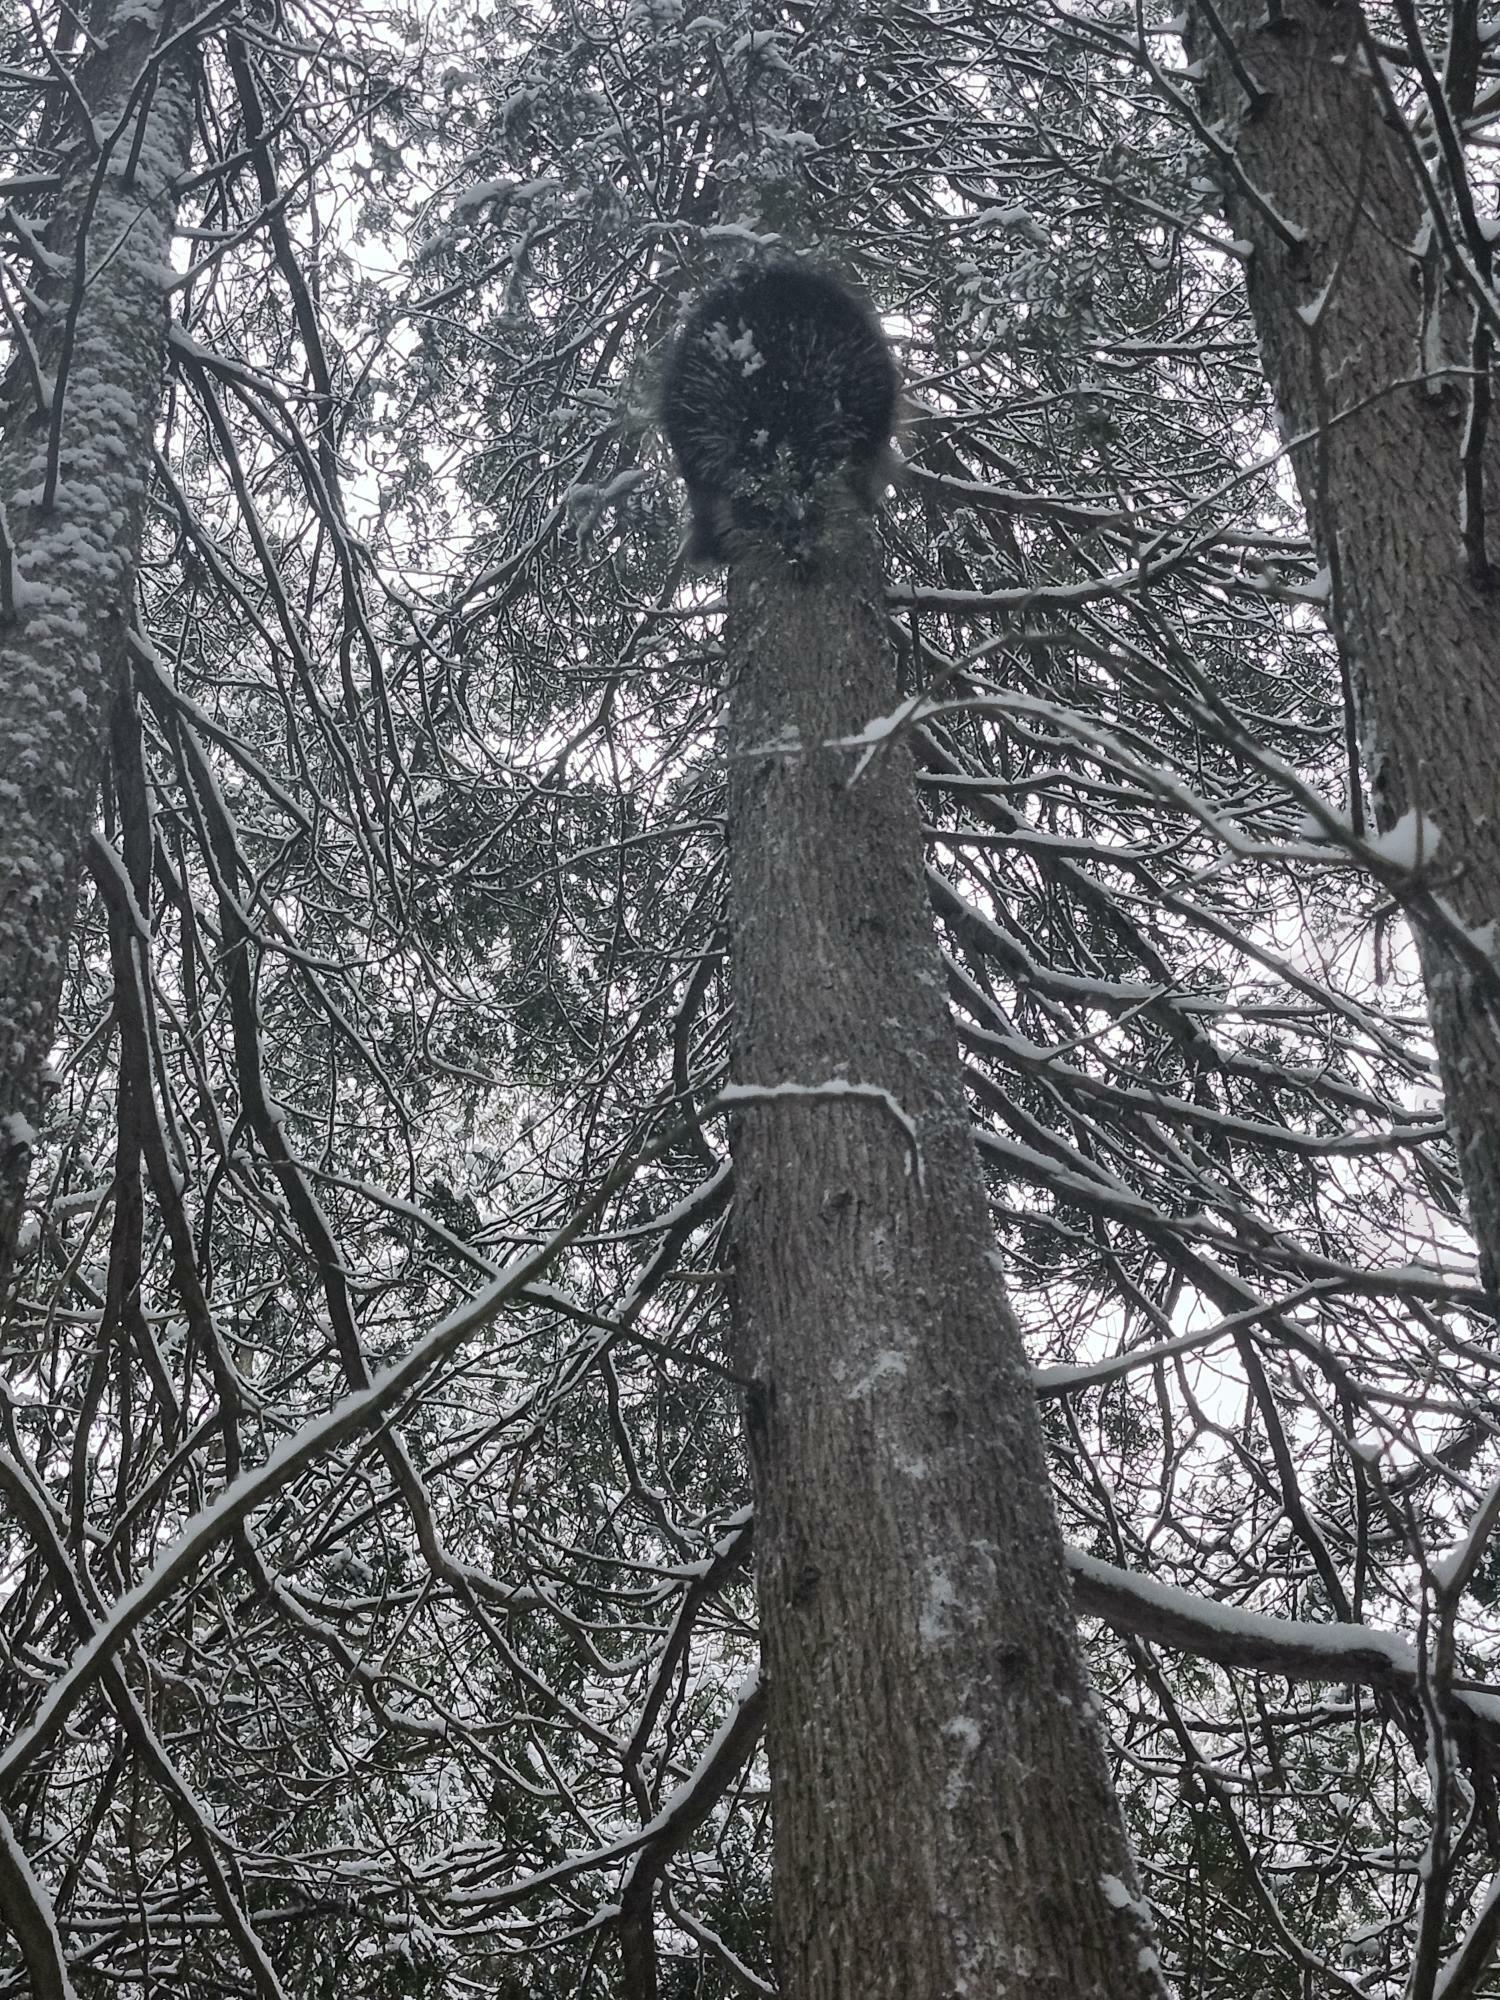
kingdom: Animalia
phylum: Chordata
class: Mammalia
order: Rodentia
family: Erethizontidae
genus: Erethizon
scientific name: Erethizon dorsatus
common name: North american porcupine
